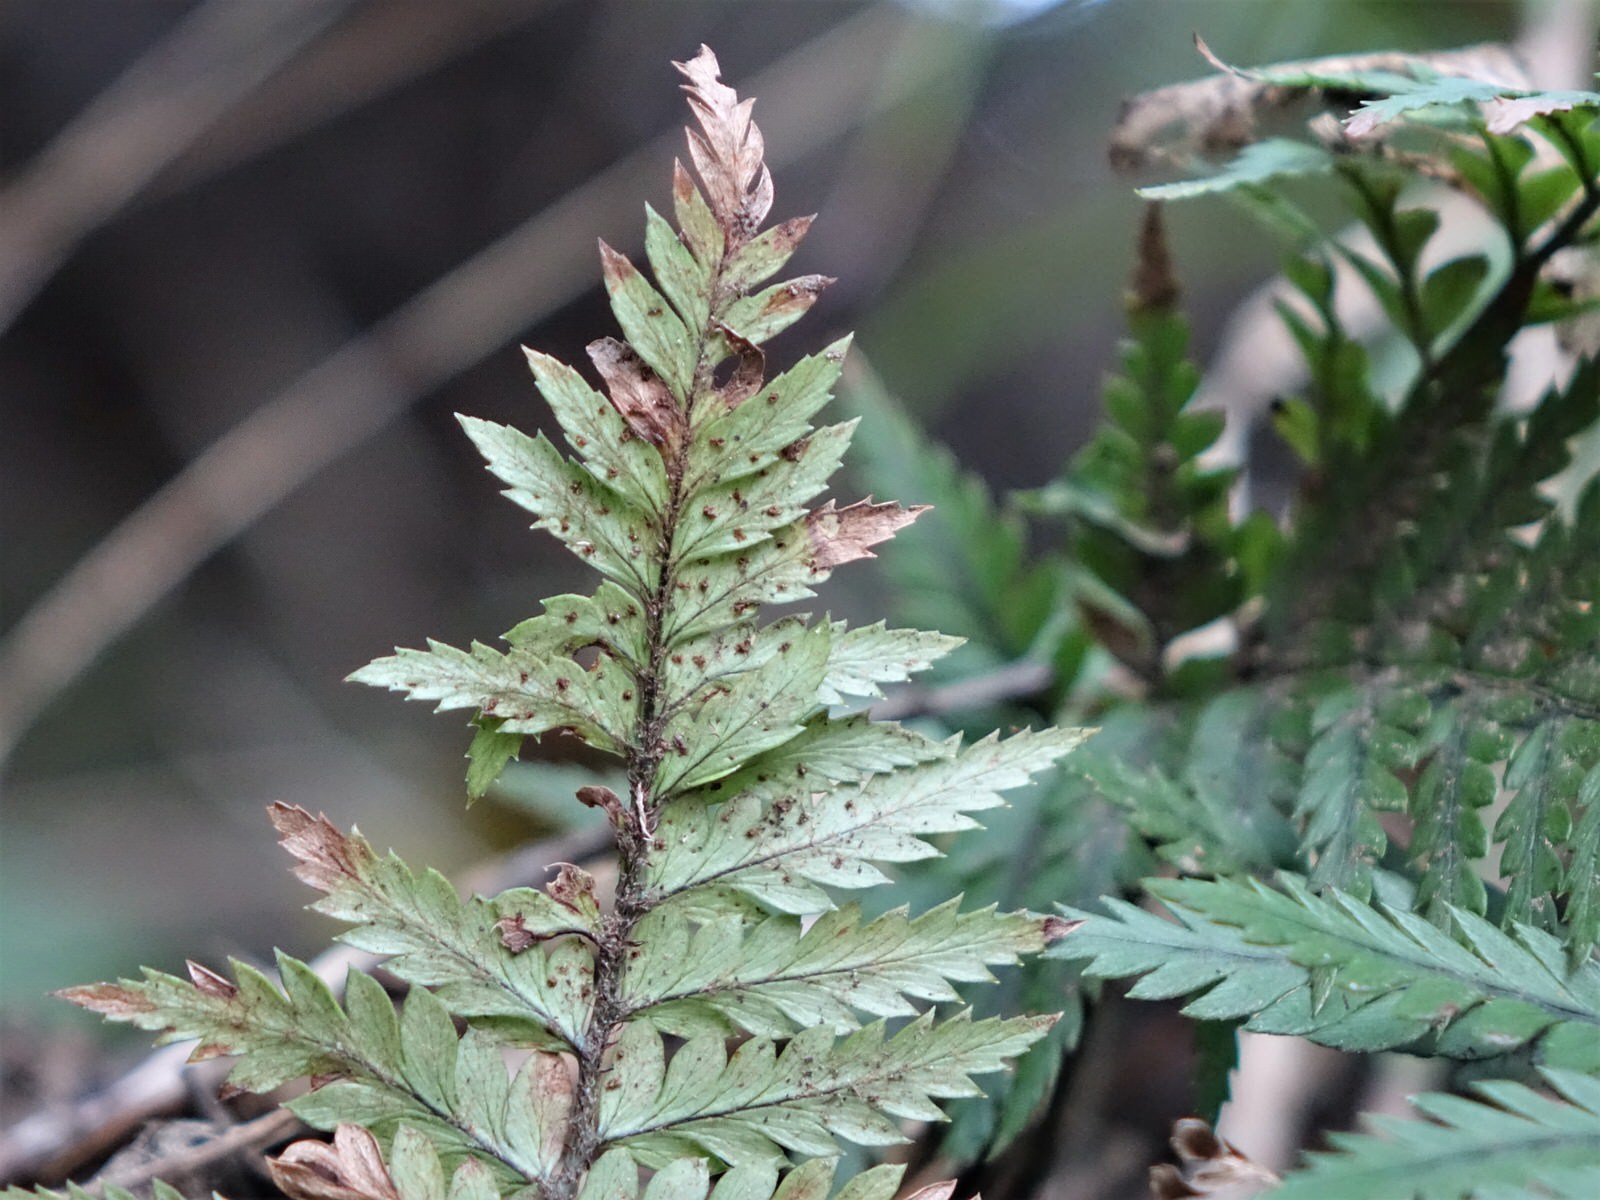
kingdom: Plantae
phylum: Tracheophyta
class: Polypodiopsida
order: Polypodiales
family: Dryopteridaceae
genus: Polystichum
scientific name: Polystichum neozelandicum
